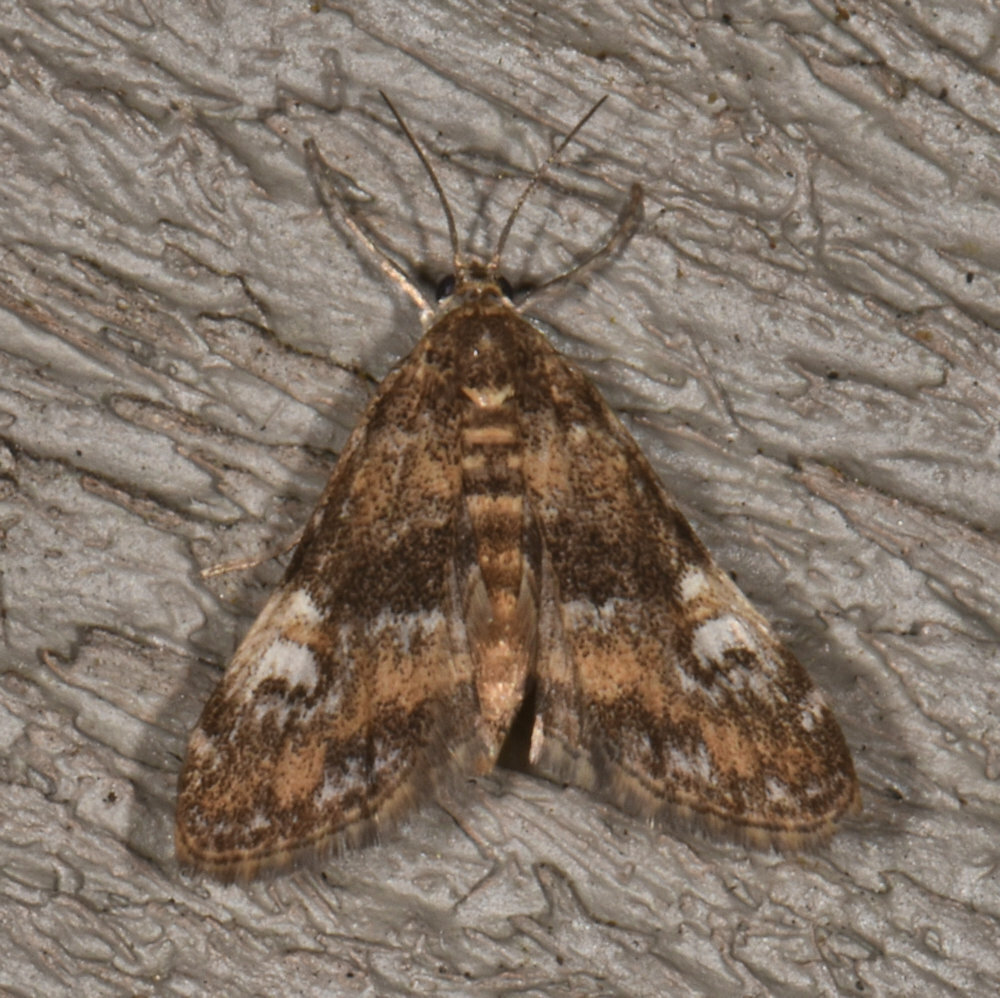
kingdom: Animalia
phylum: Arthropoda
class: Insecta
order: Lepidoptera
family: Crambidae
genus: Elophila
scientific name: Elophila obliteralis
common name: Waterlily leafcutter moth
